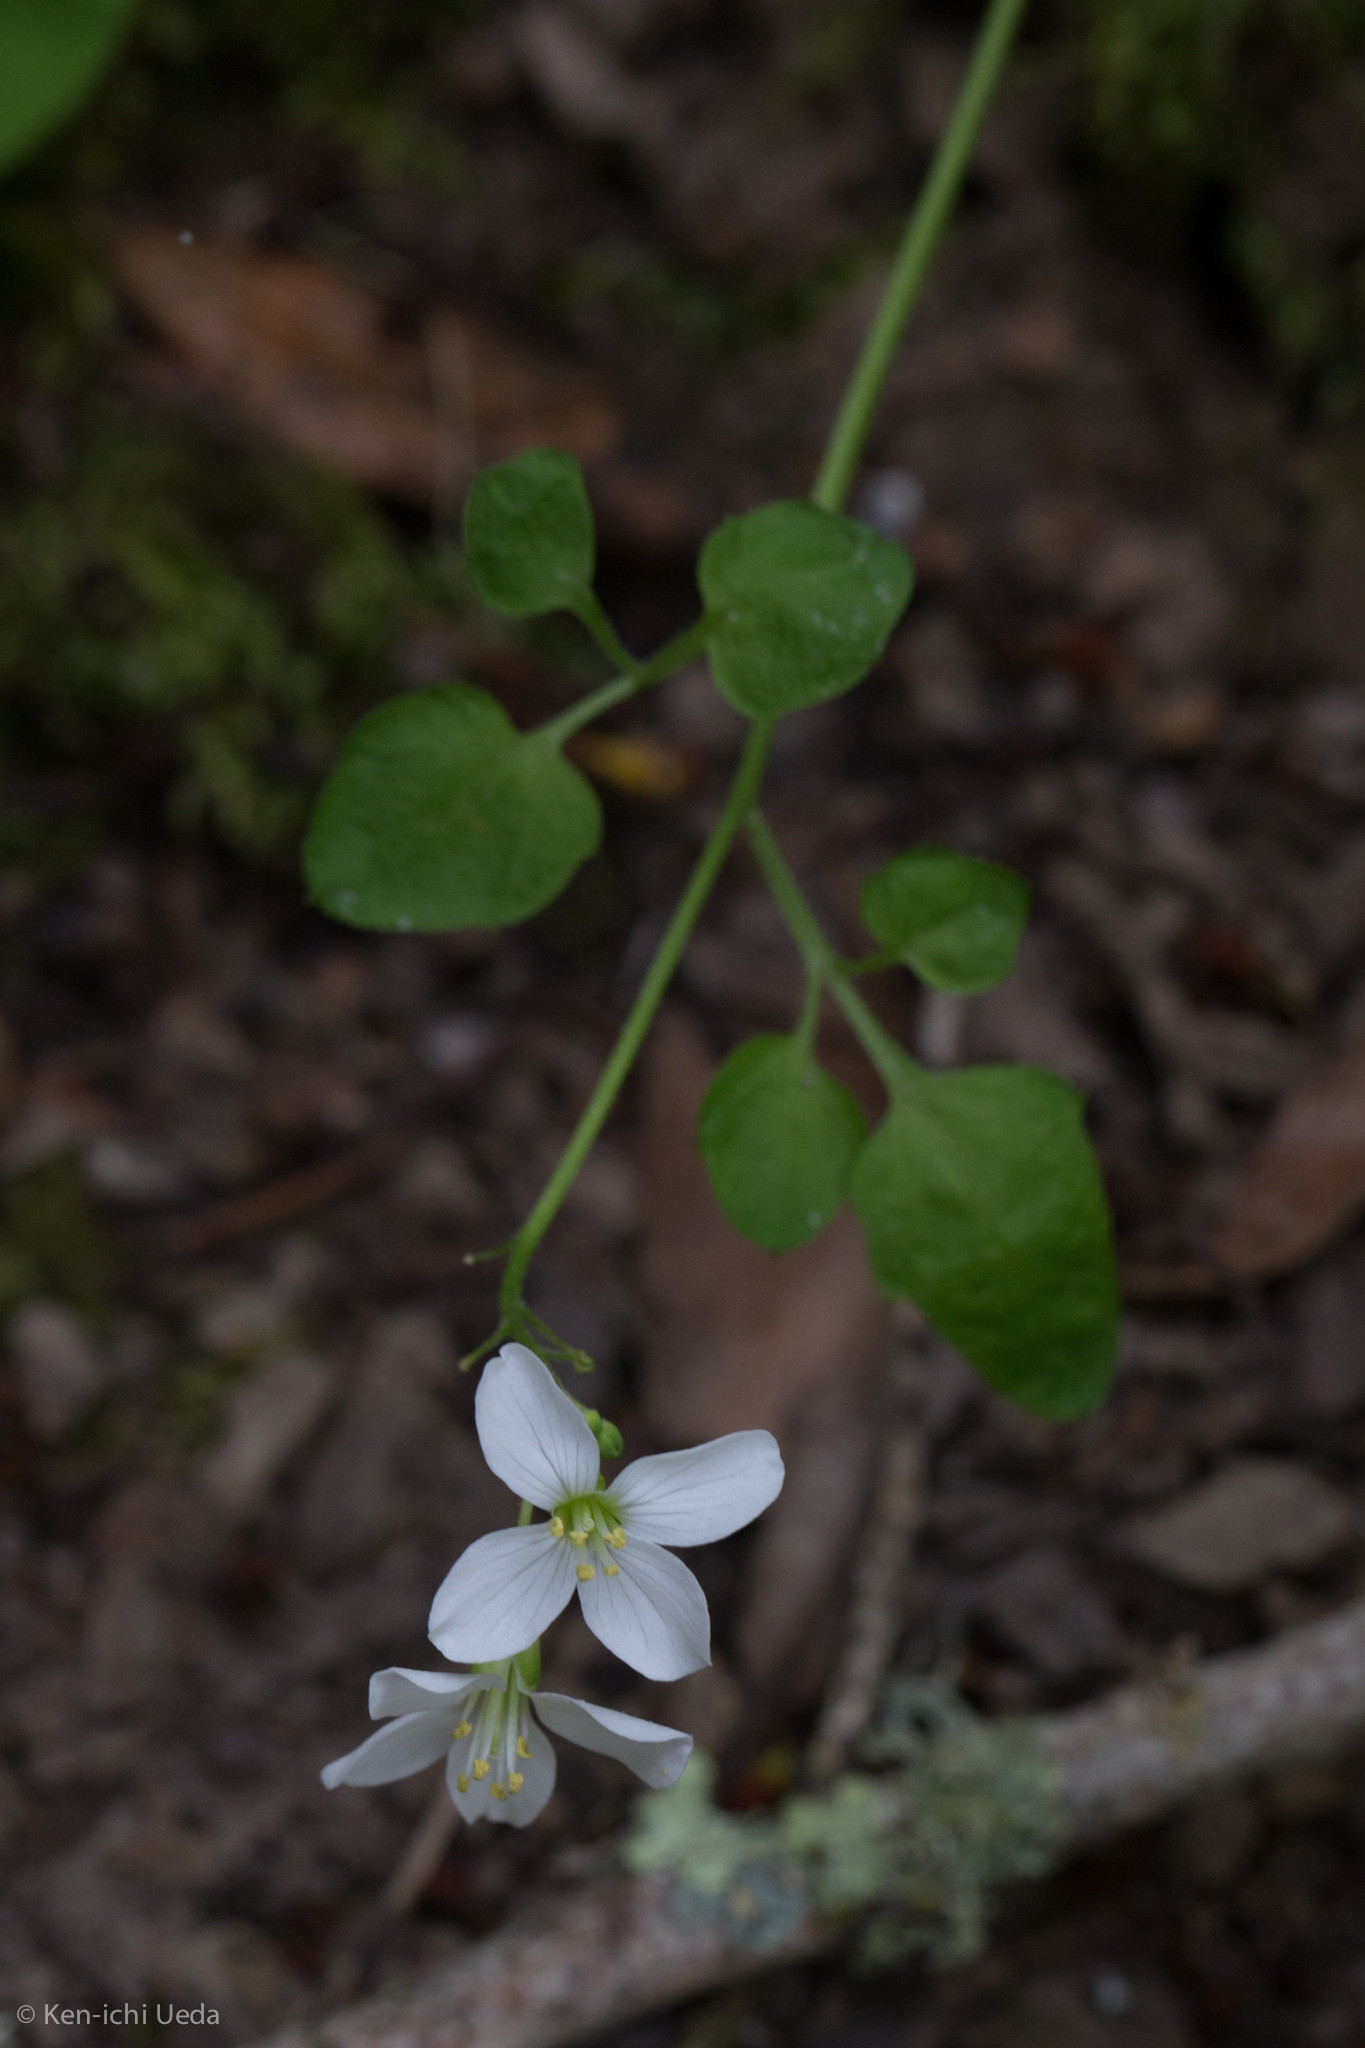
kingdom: Plantae
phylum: Tracheophyta
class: Magnoliopsida
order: Brassicales
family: Brassicaceae
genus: Cardamine
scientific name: Cardamine californica
